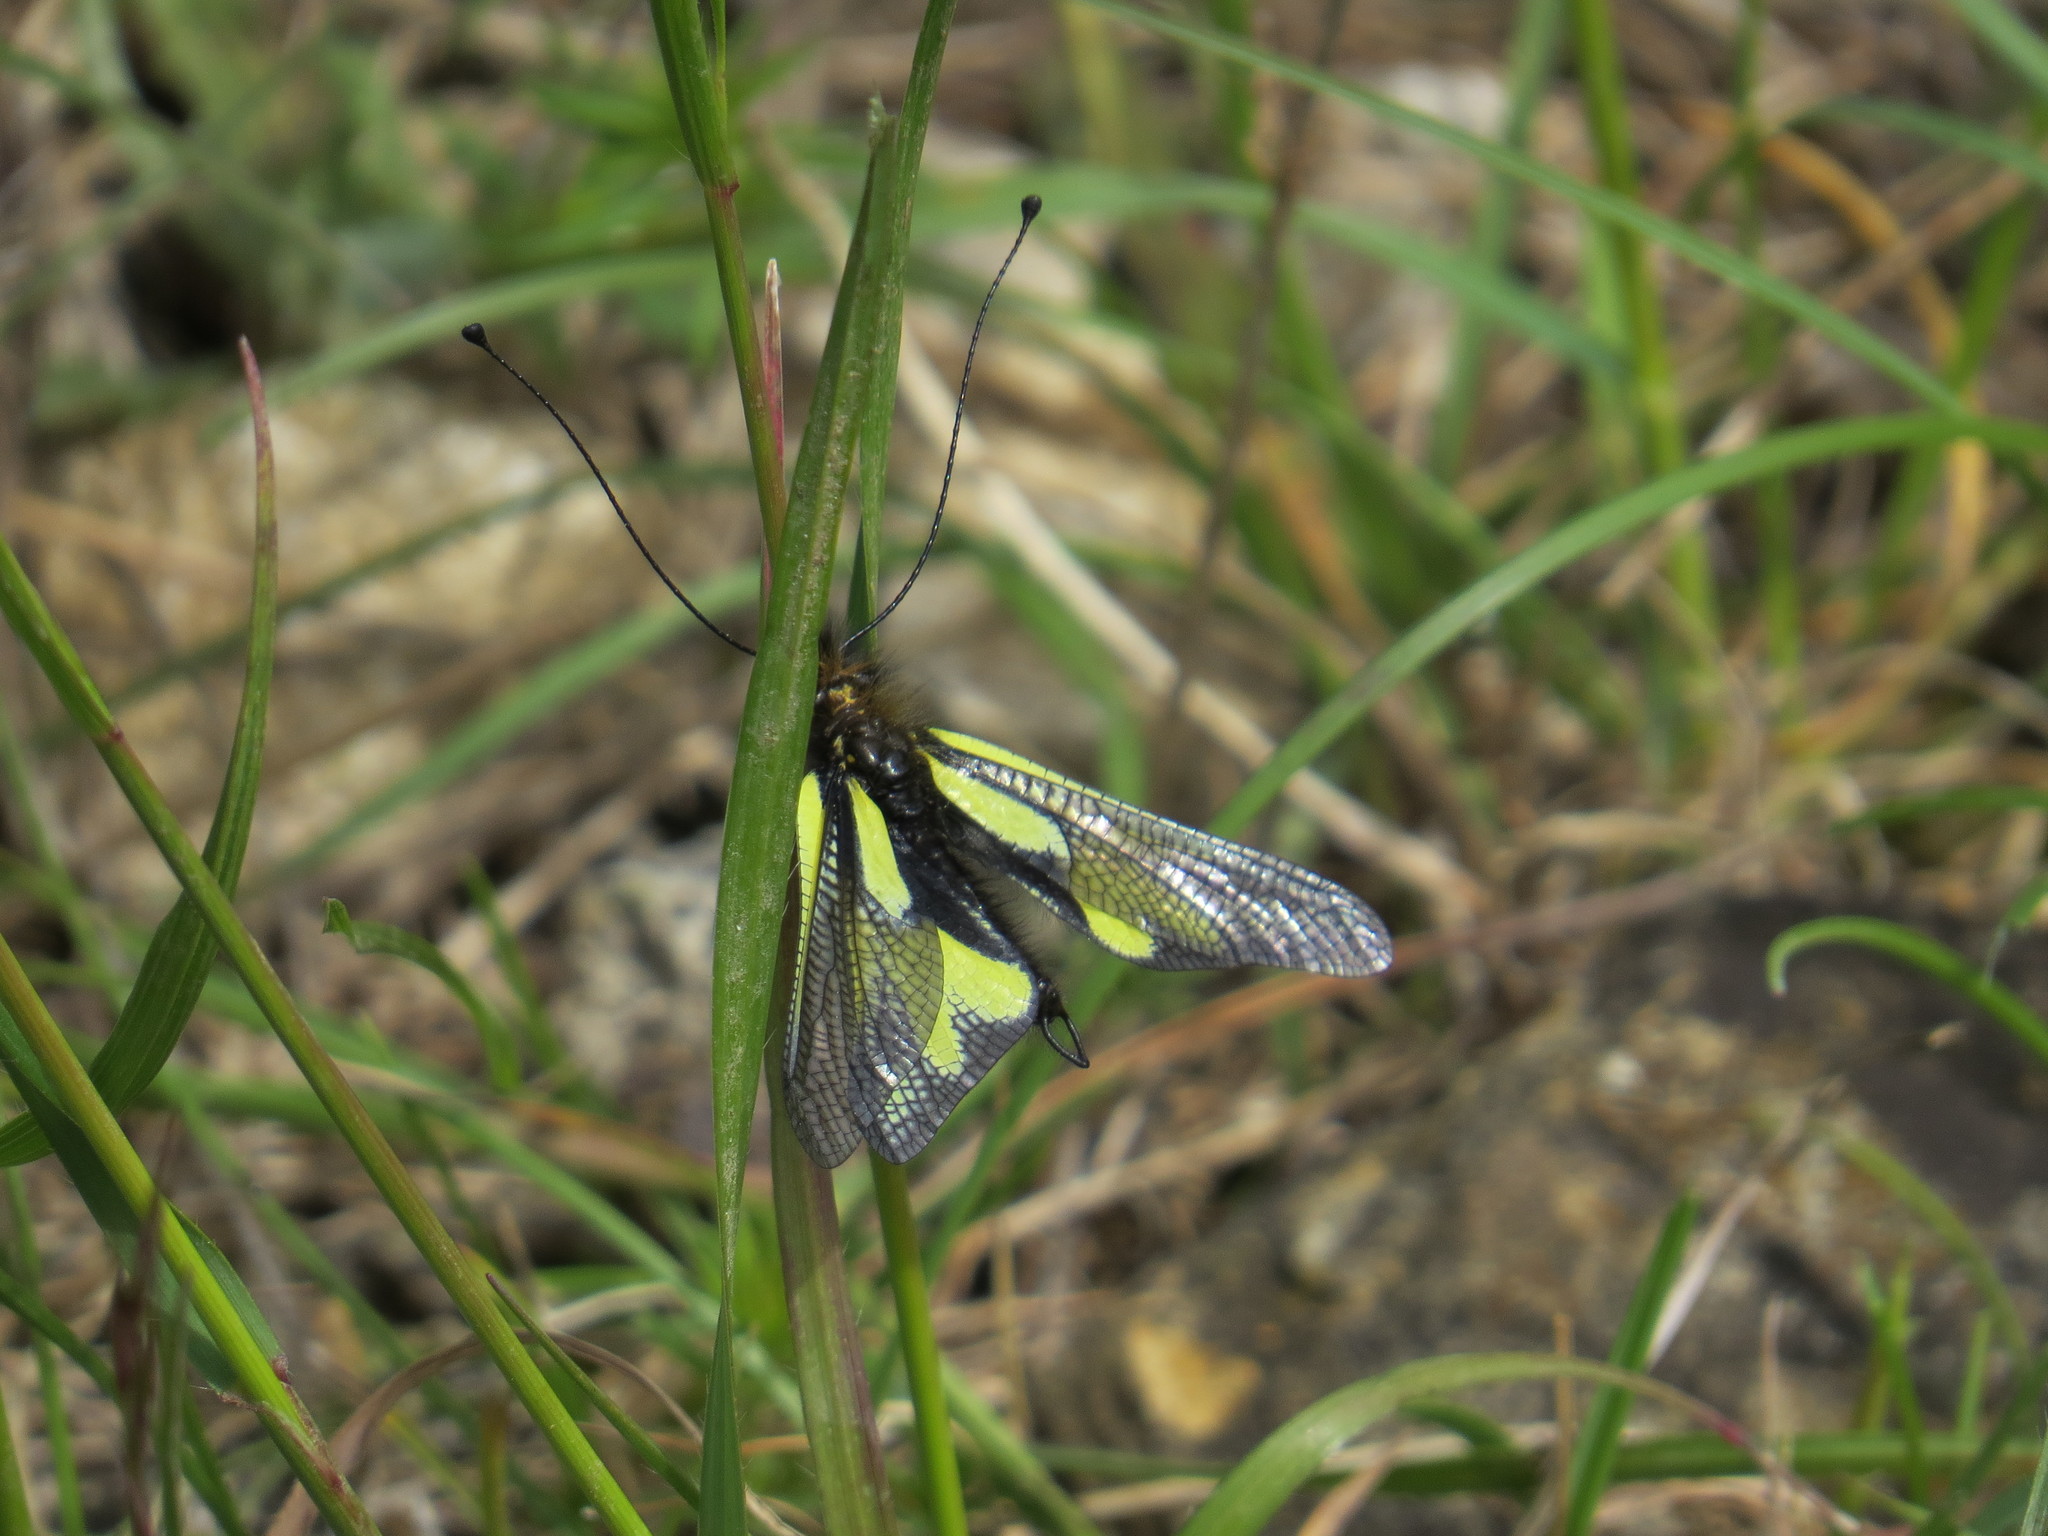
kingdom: Animalia
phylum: Arthropoda
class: Insecta
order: Neuroptera
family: Ascalaphidae
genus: Libelloides
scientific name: Libelloides coccajus
